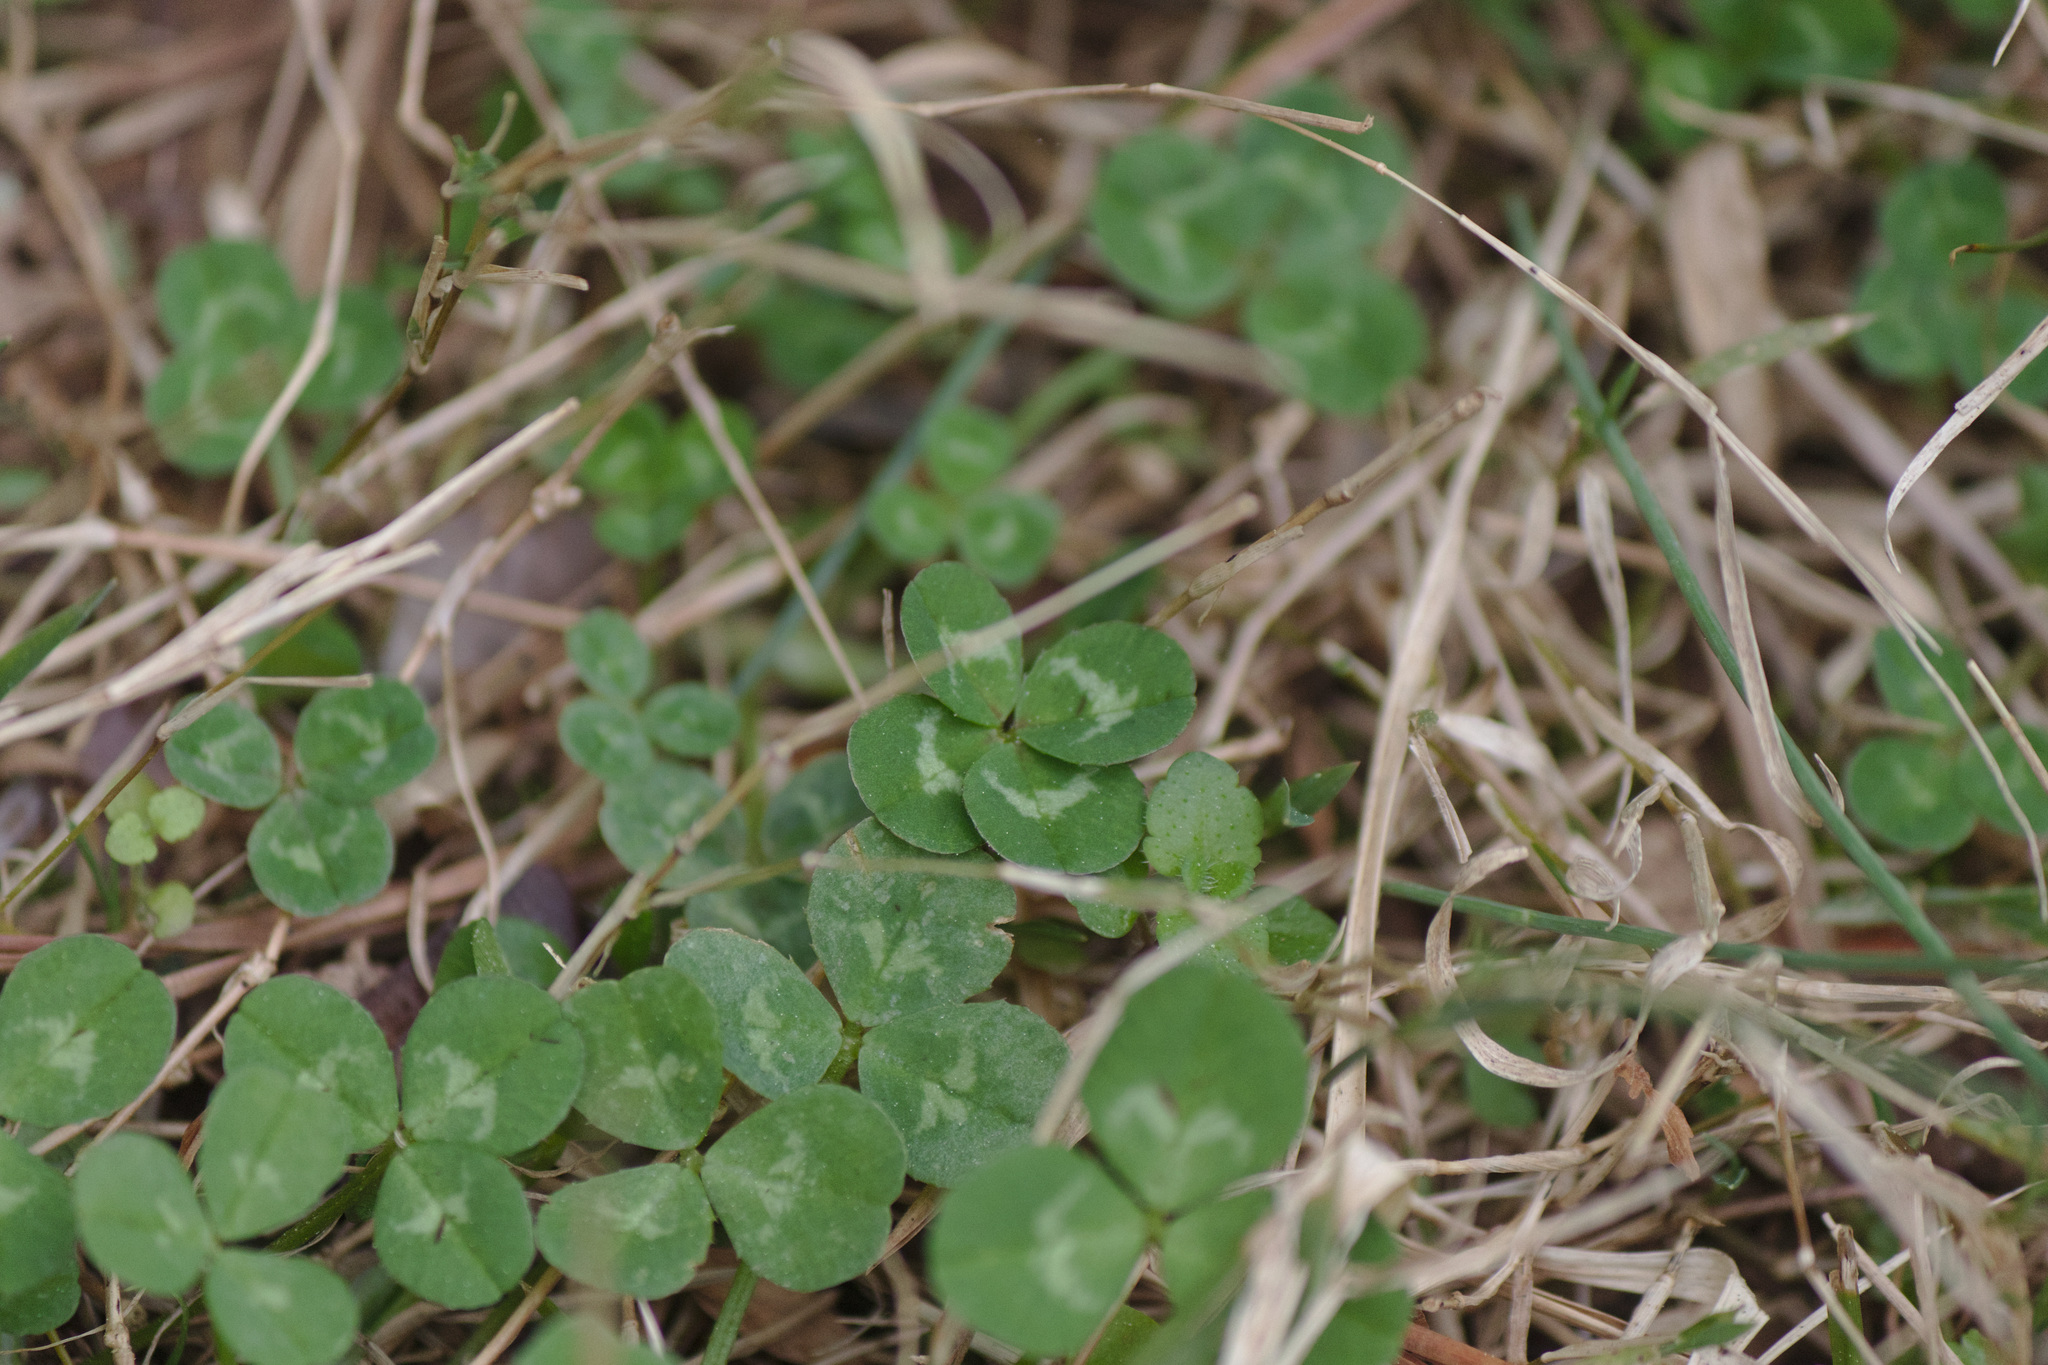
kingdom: Plantae
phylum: Tracheophyta
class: Magnoliopsida
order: Fabales
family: Fabaceae
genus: Trifolium
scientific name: Trifolium repens
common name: White clover
